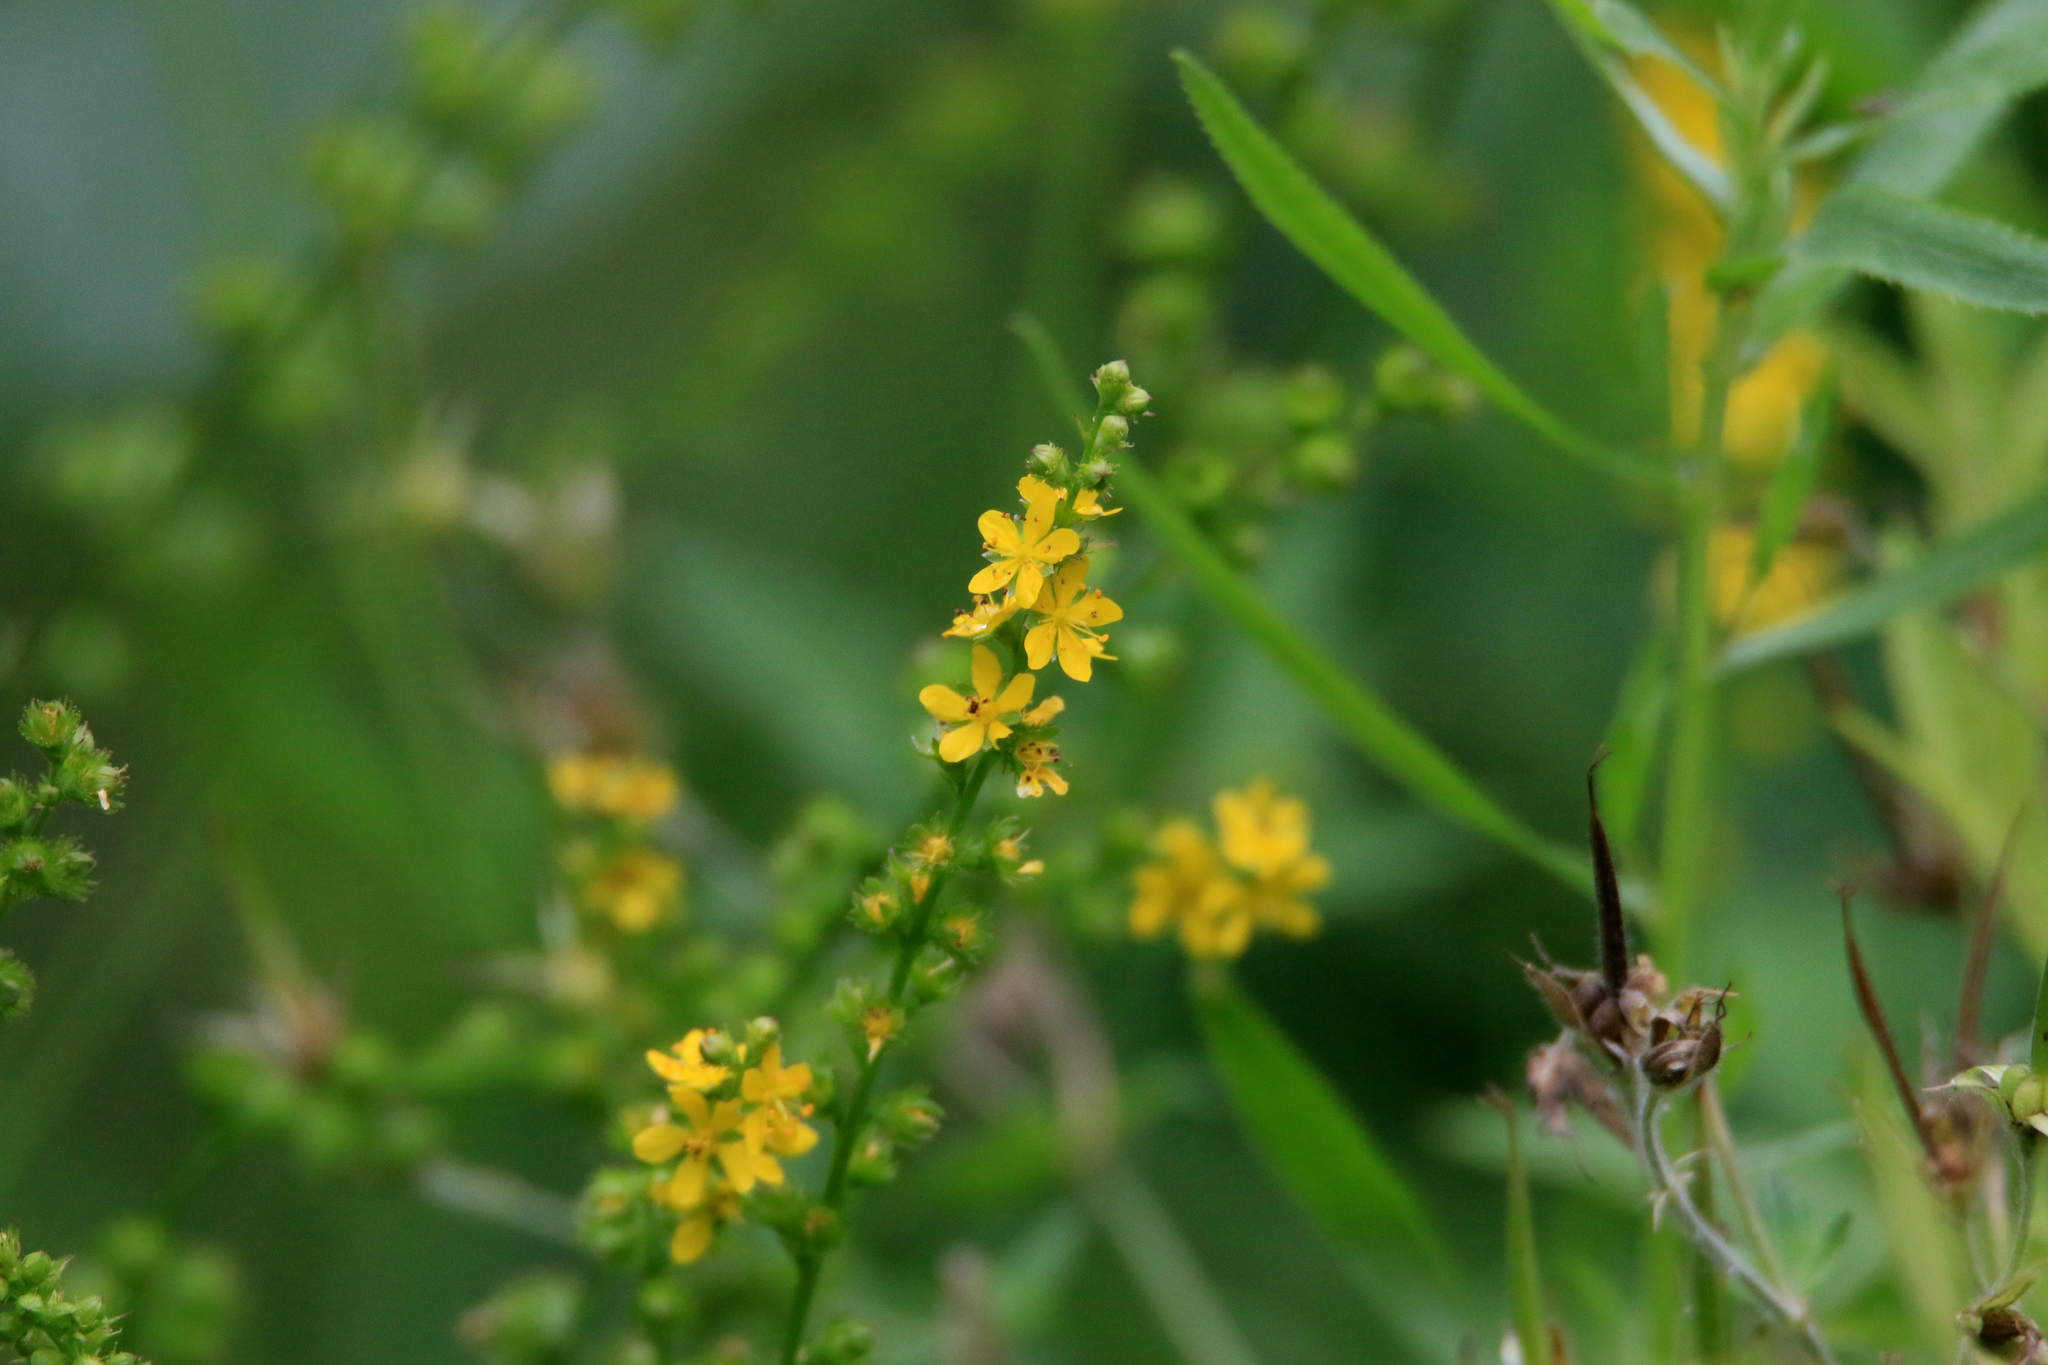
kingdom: Plantae
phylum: Tracheophyta
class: Magnoliopsida
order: Rosales
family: Rosaceae
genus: Agrimonia
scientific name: Agrimonia pilosa
